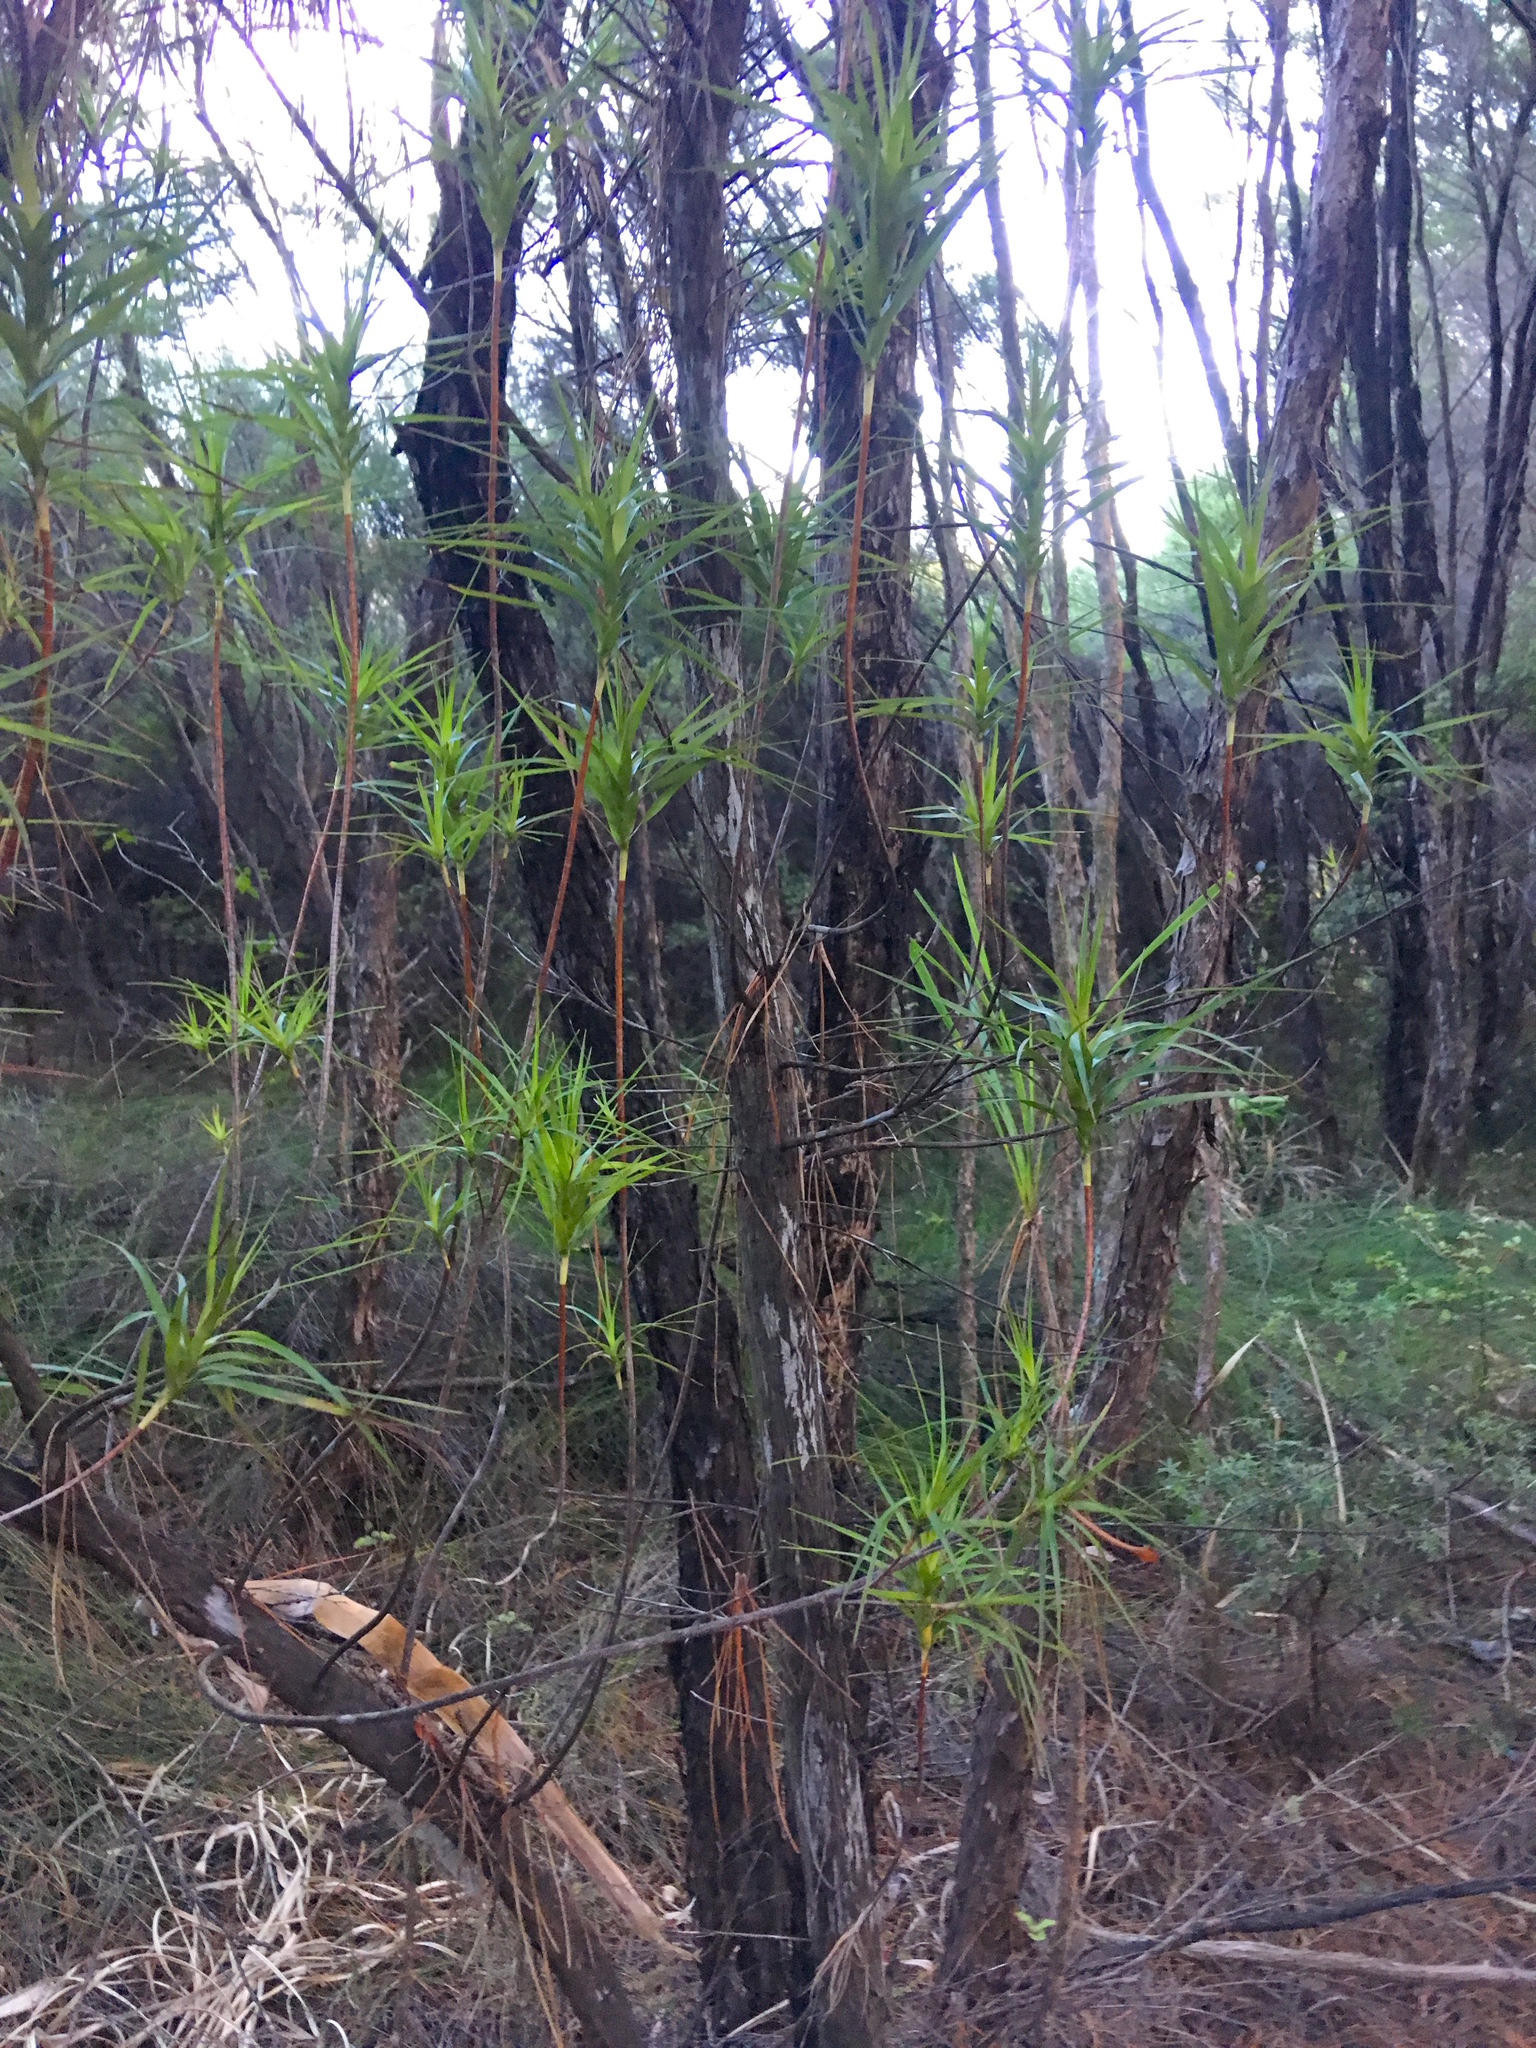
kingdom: Plantae
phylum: Tracheophyta
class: Magnoliopsida
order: Ericales
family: Ericaceae
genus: Dracophyllum
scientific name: Dracophyllum sinclairii
